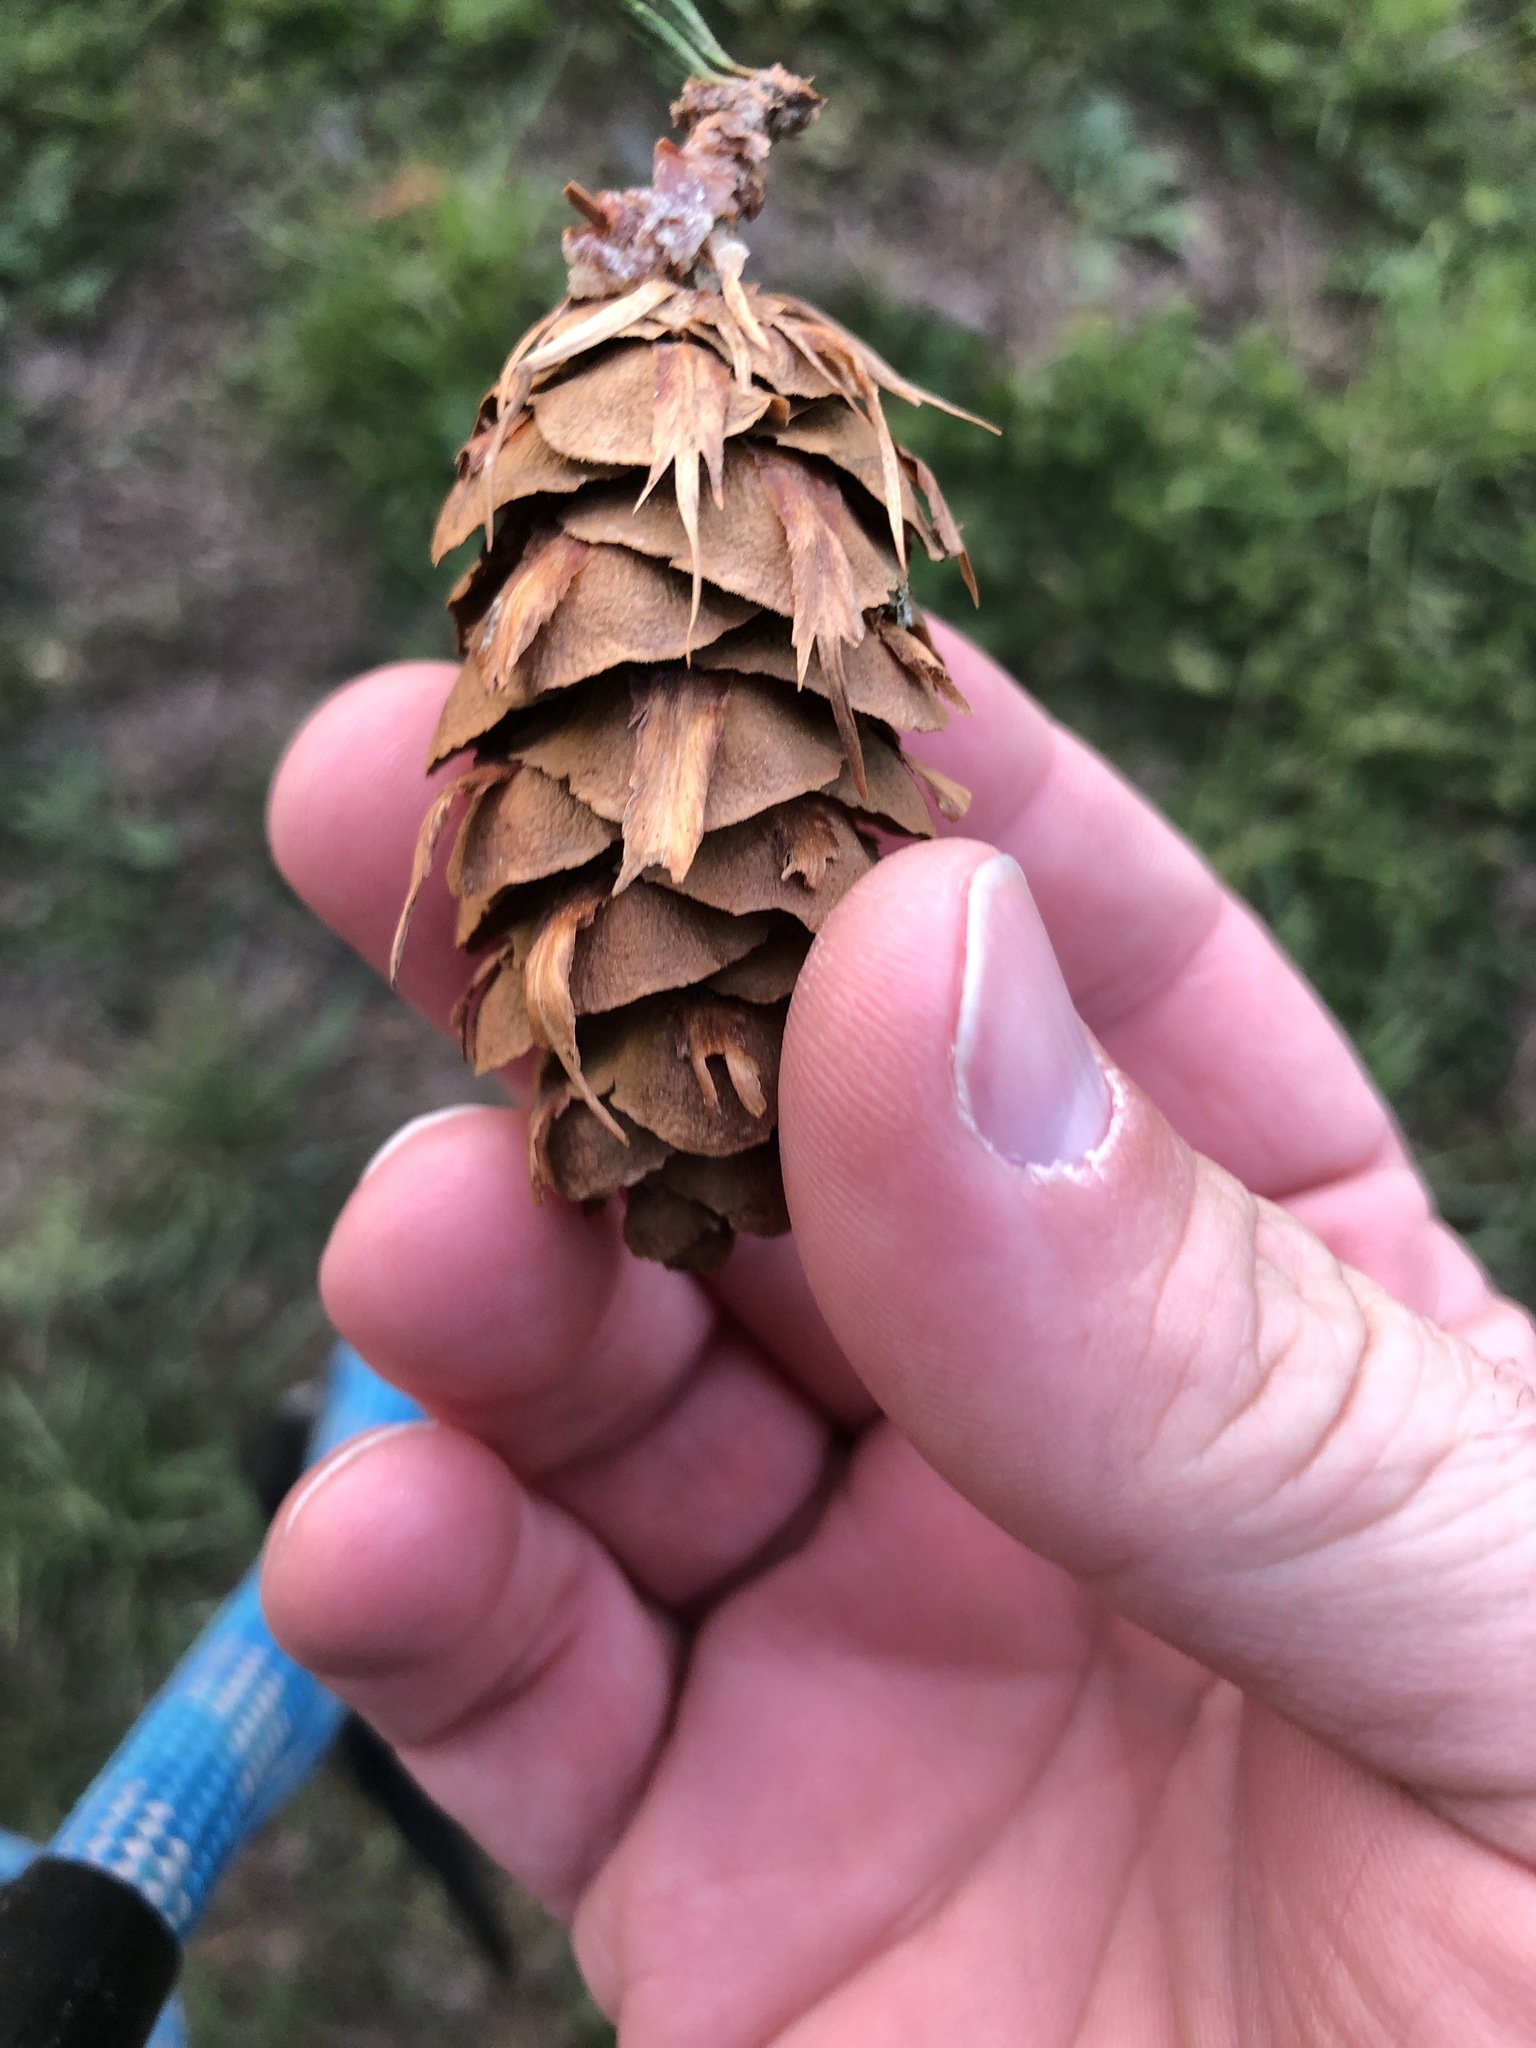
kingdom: Plantae
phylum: Tracheophyta
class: Pinopsida
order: Pinales
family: Pinaceae
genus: Pseudotsuga
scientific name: Pseudotsuga menziesii
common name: Douglas fir
